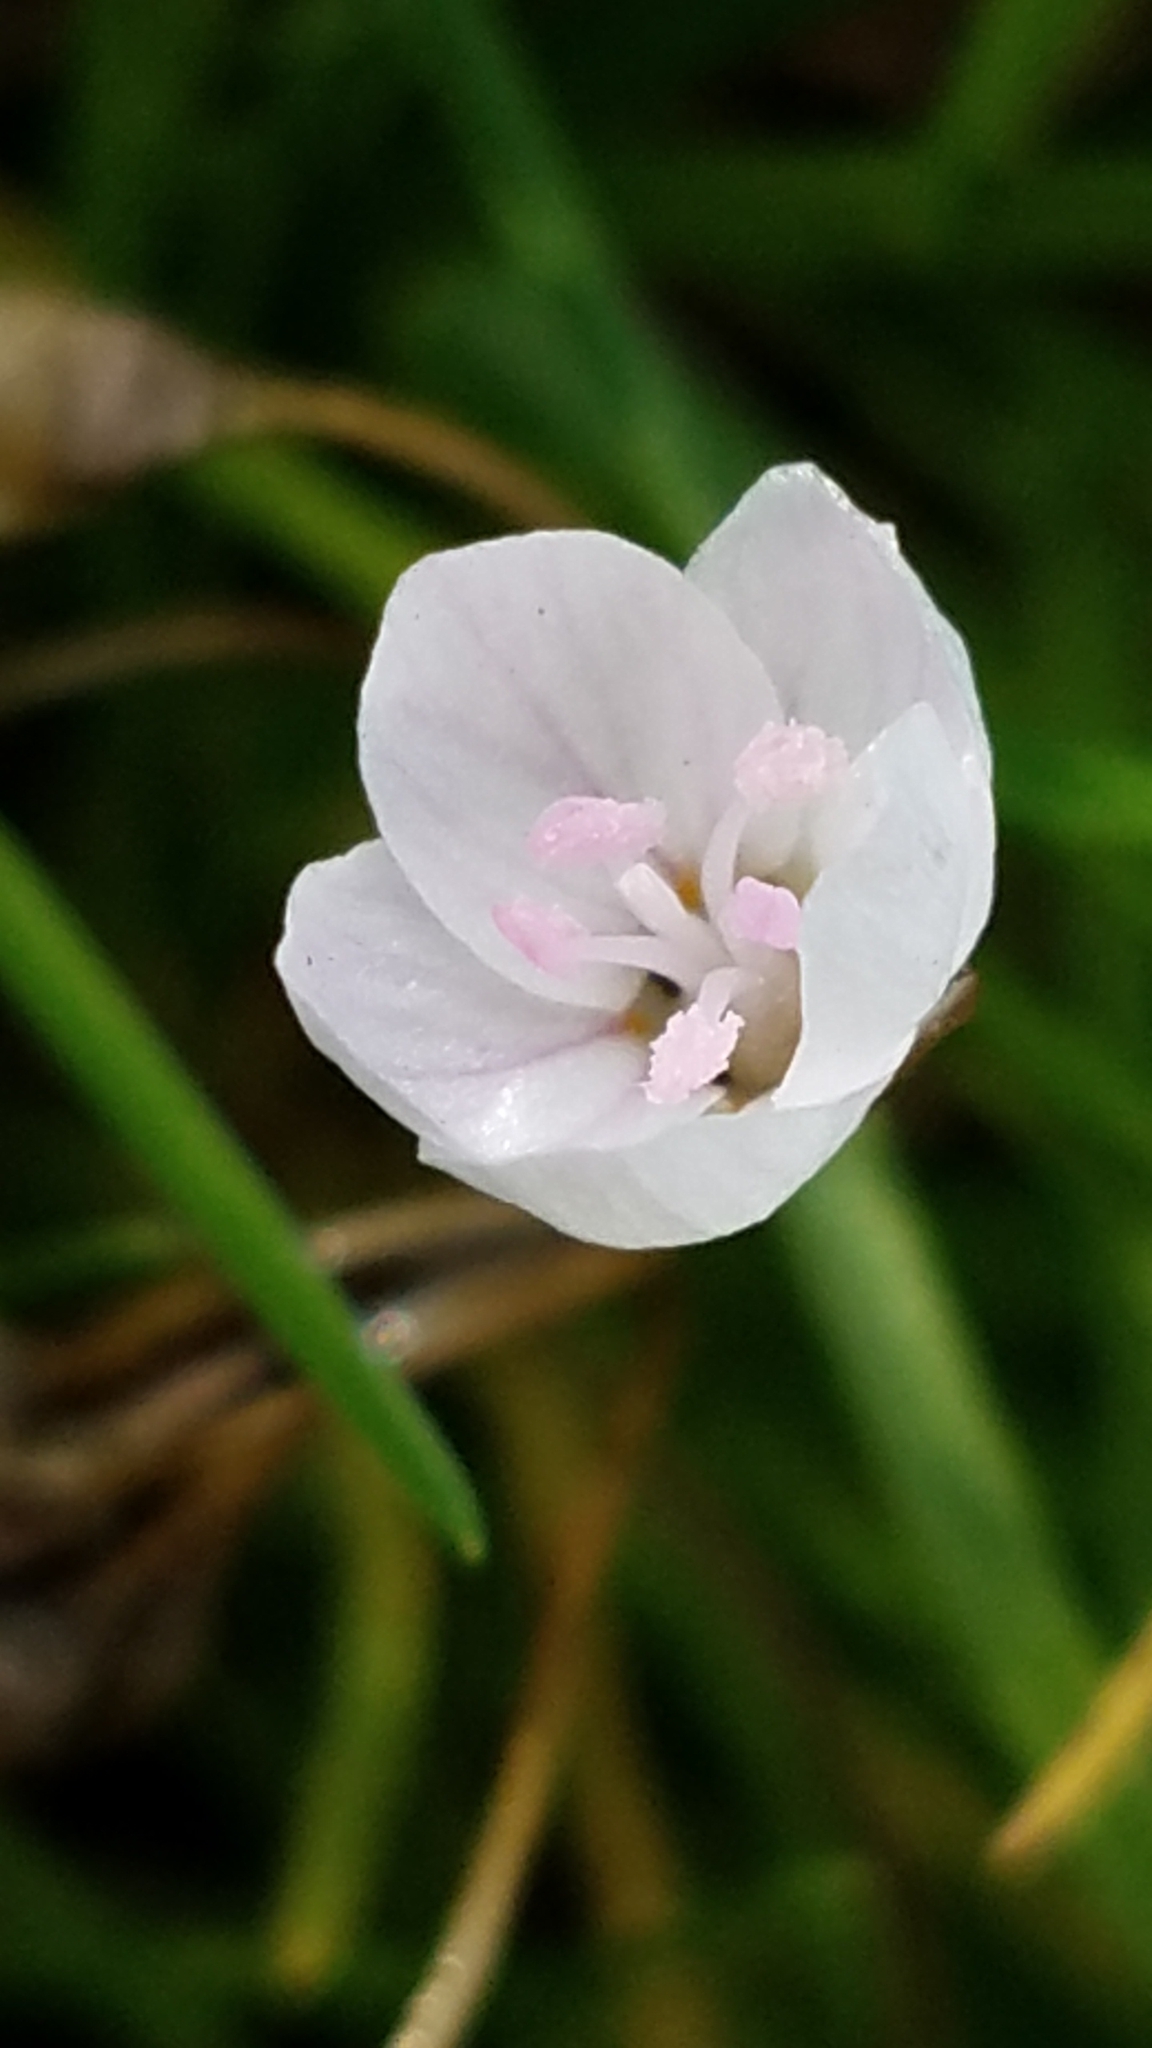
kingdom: Plantae
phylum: Tracheophyta
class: Magnoliopsida
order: Caryophyllales
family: Montiaceae
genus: Claytonia
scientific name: Claytonia virginica
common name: Virginia springbeauty
